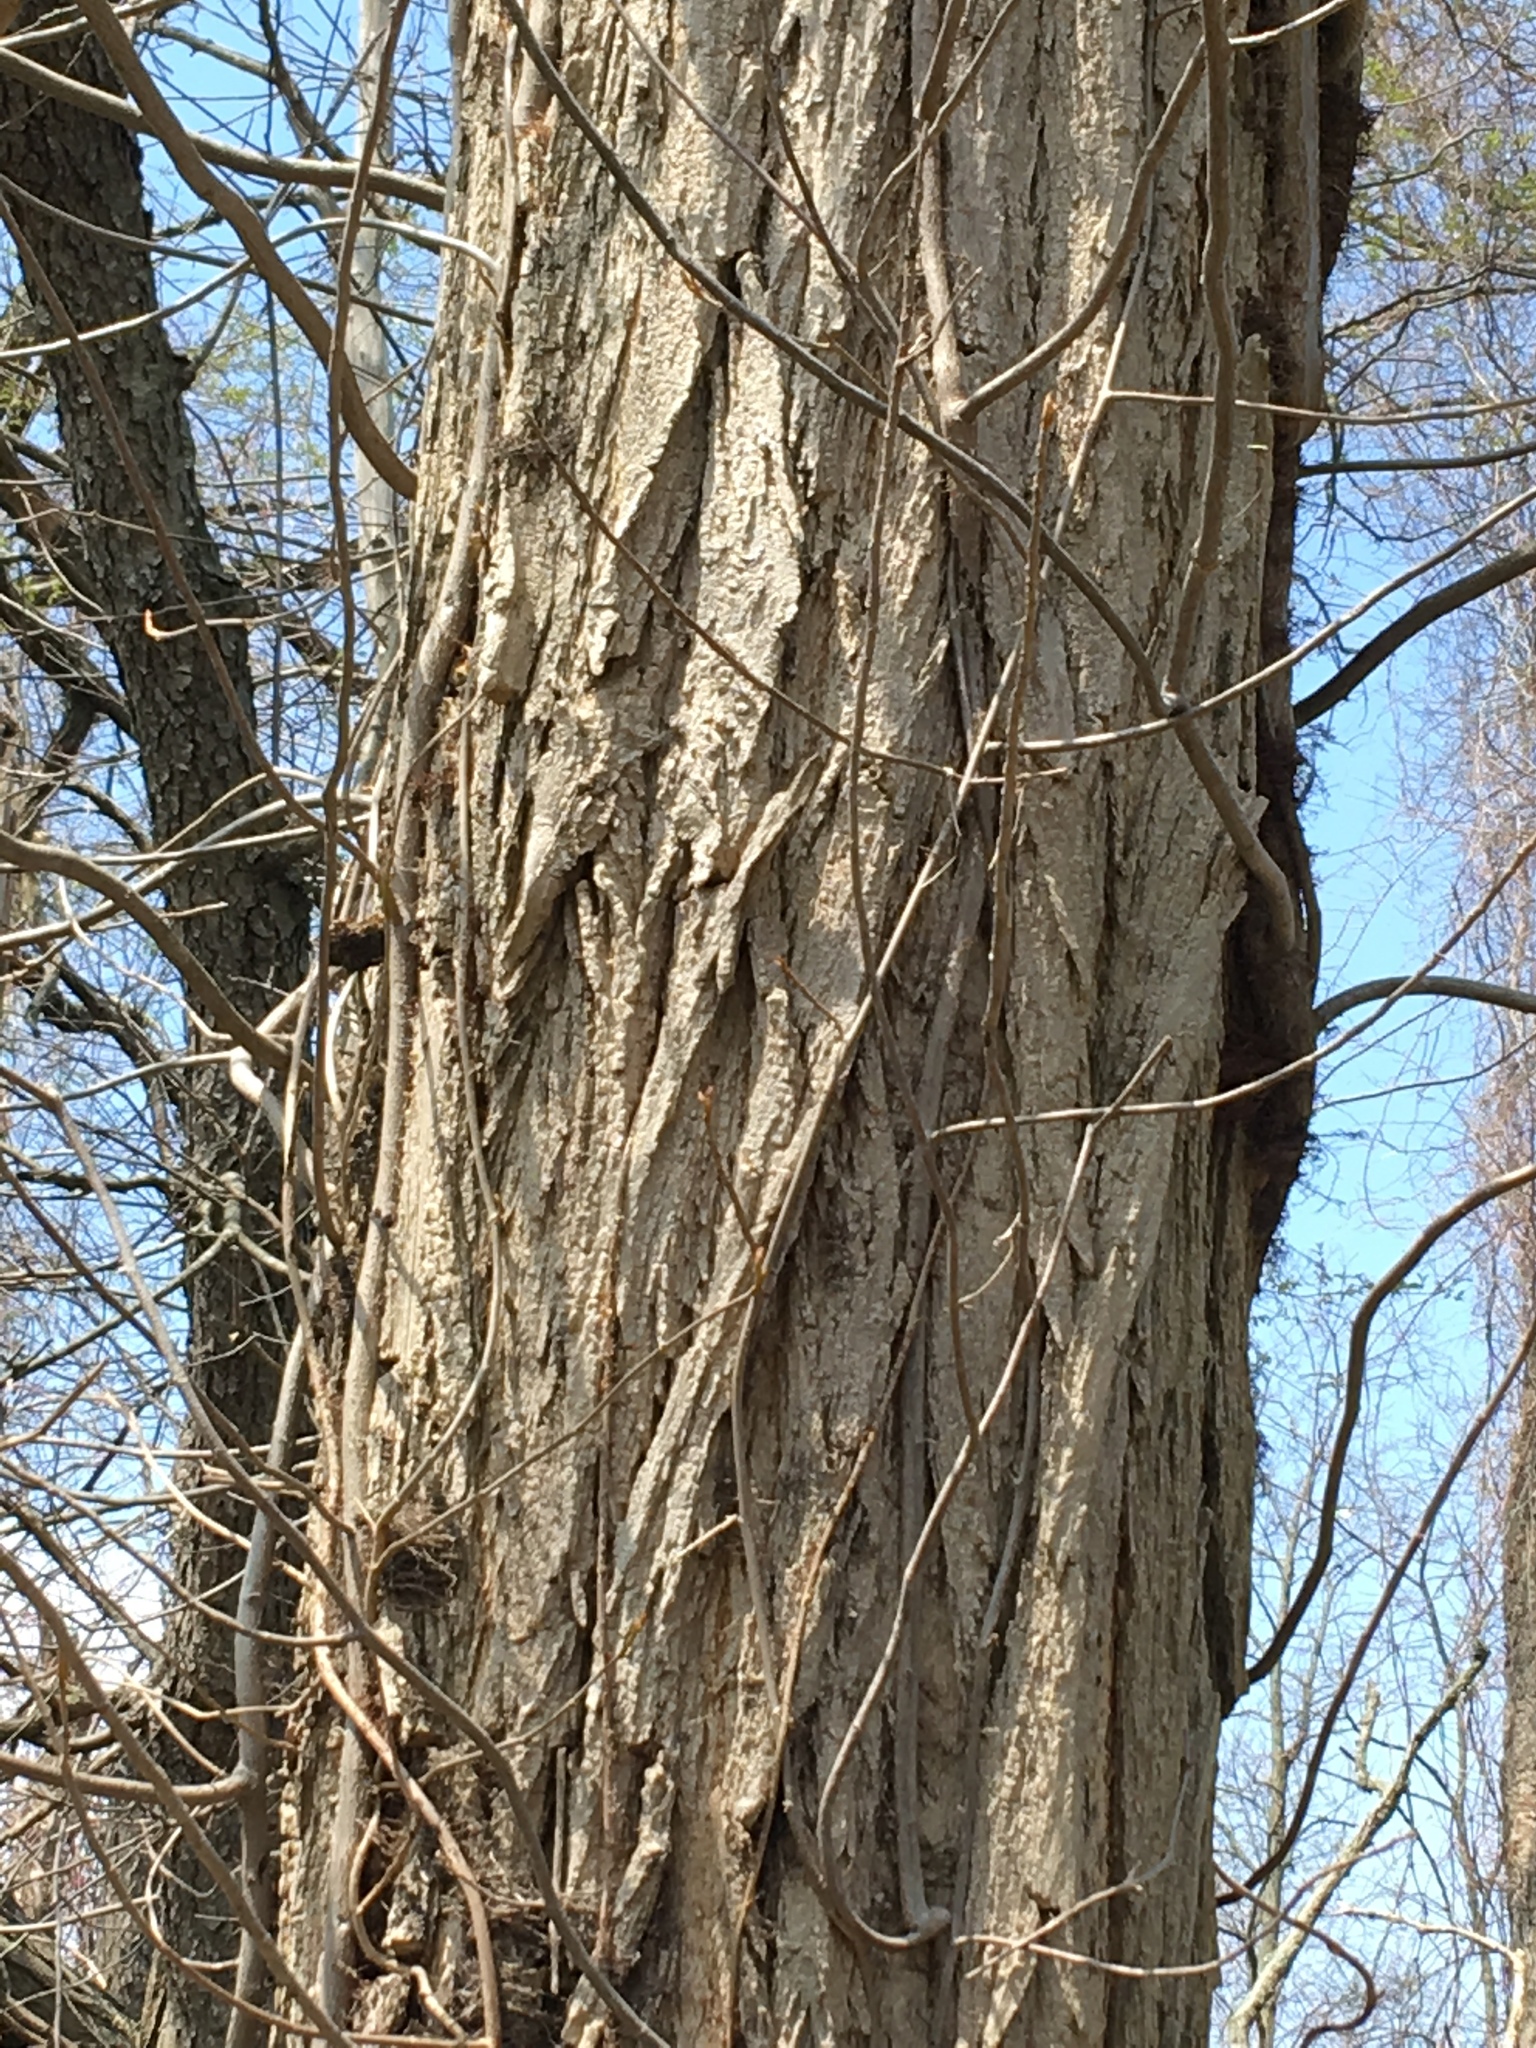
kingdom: Plantae
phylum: Tracheophyta
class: Magnoliopsida
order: Fabales
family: Fabaceae
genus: Robinia
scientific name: Robinia pseudoacacia
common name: Black locust
